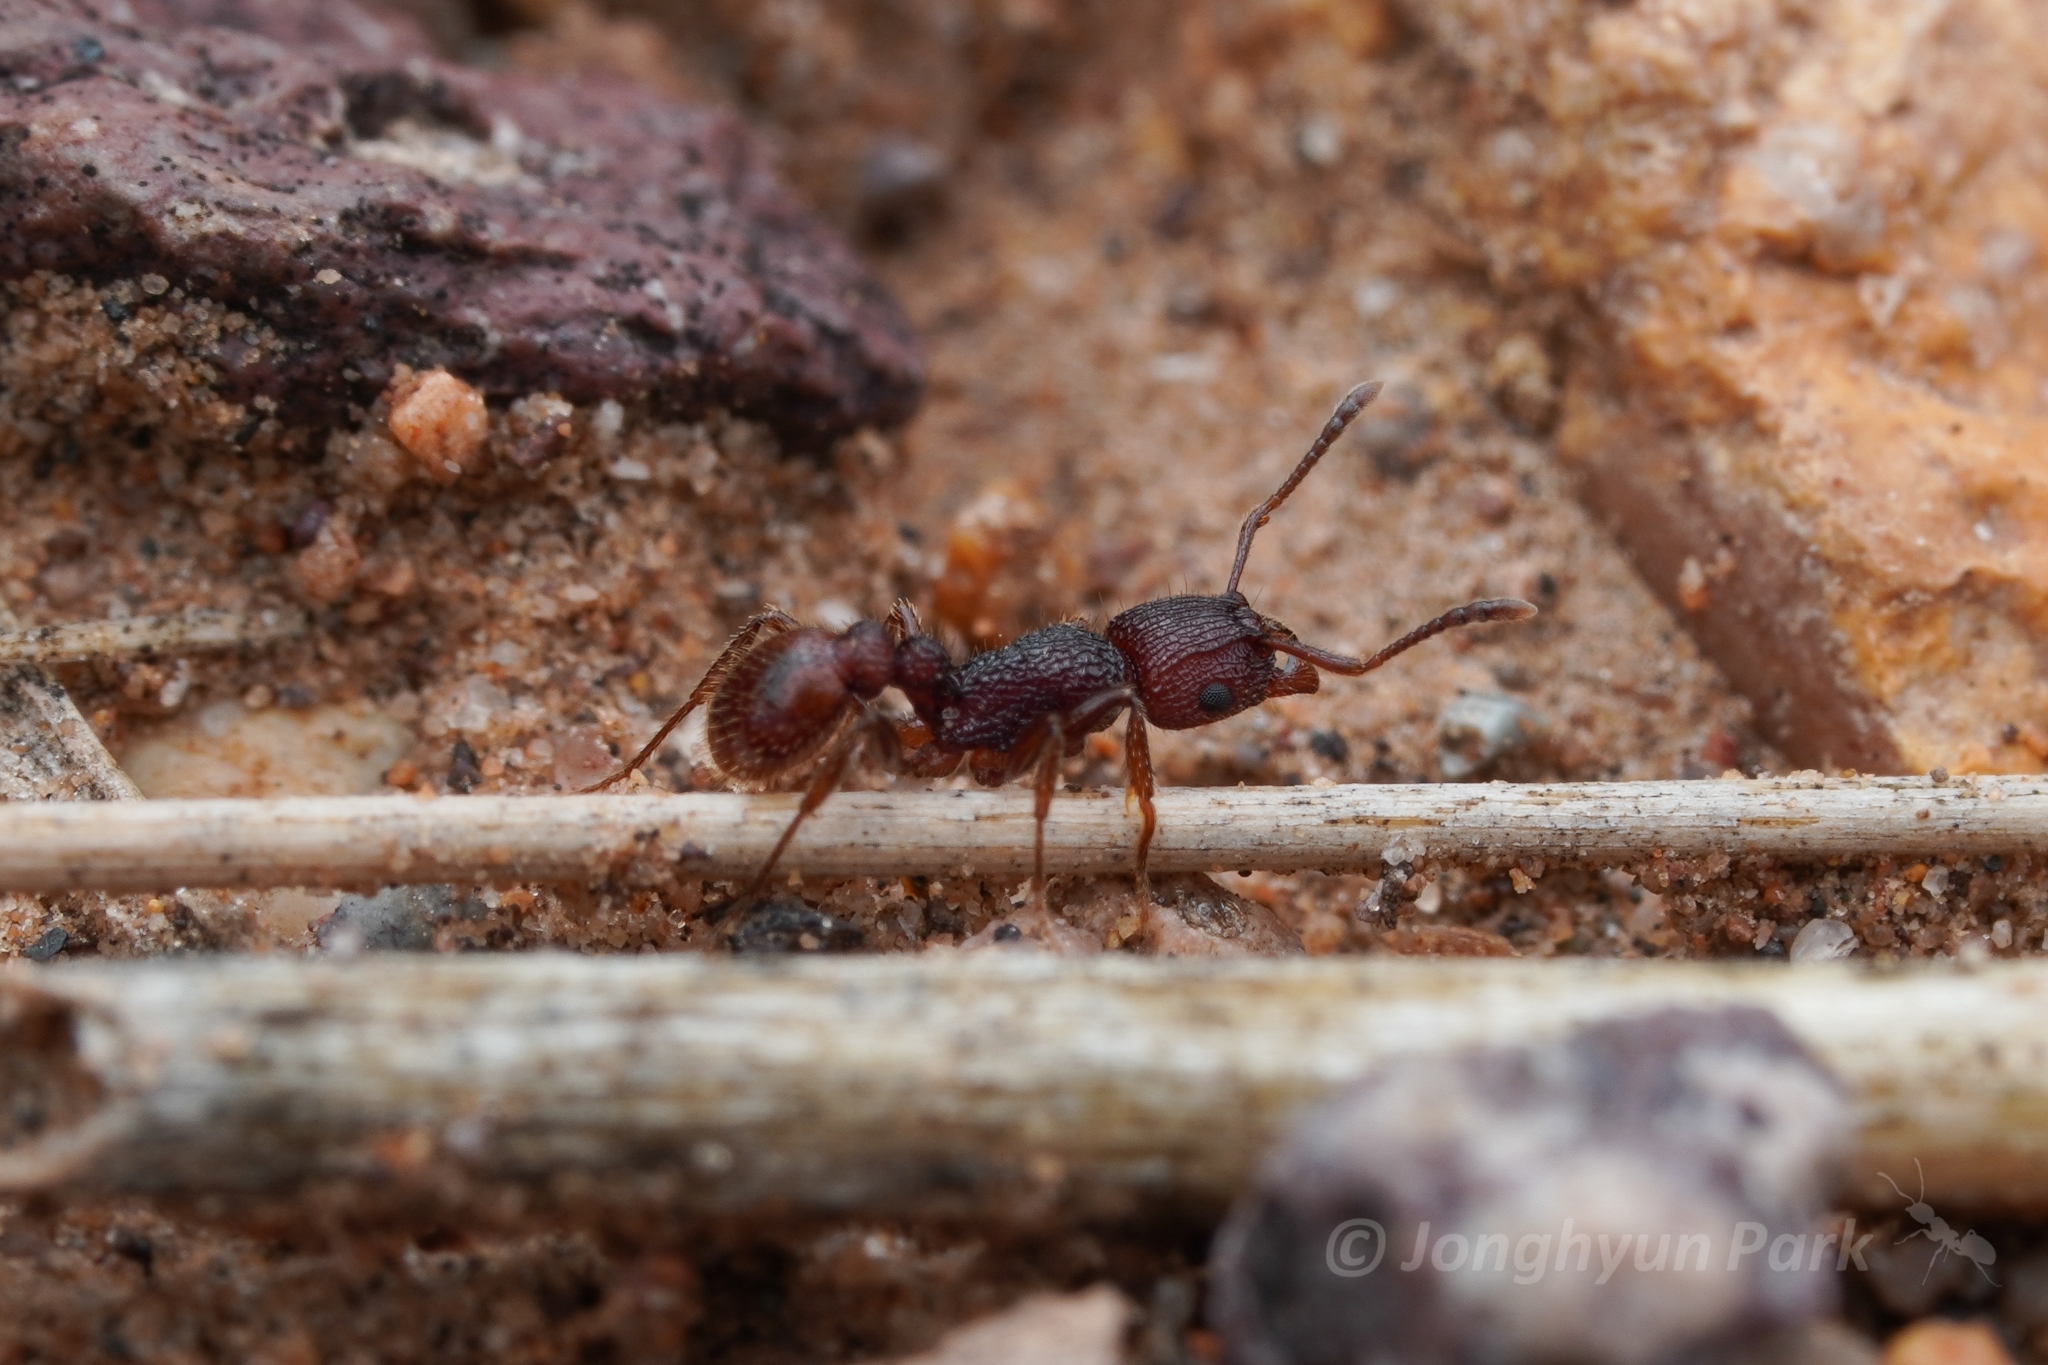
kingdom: Animalia
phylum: Arthropoda
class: Insecta
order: Hymenoptera
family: Formicidae
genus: Tetramorium
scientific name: Tetramorium hispidum
